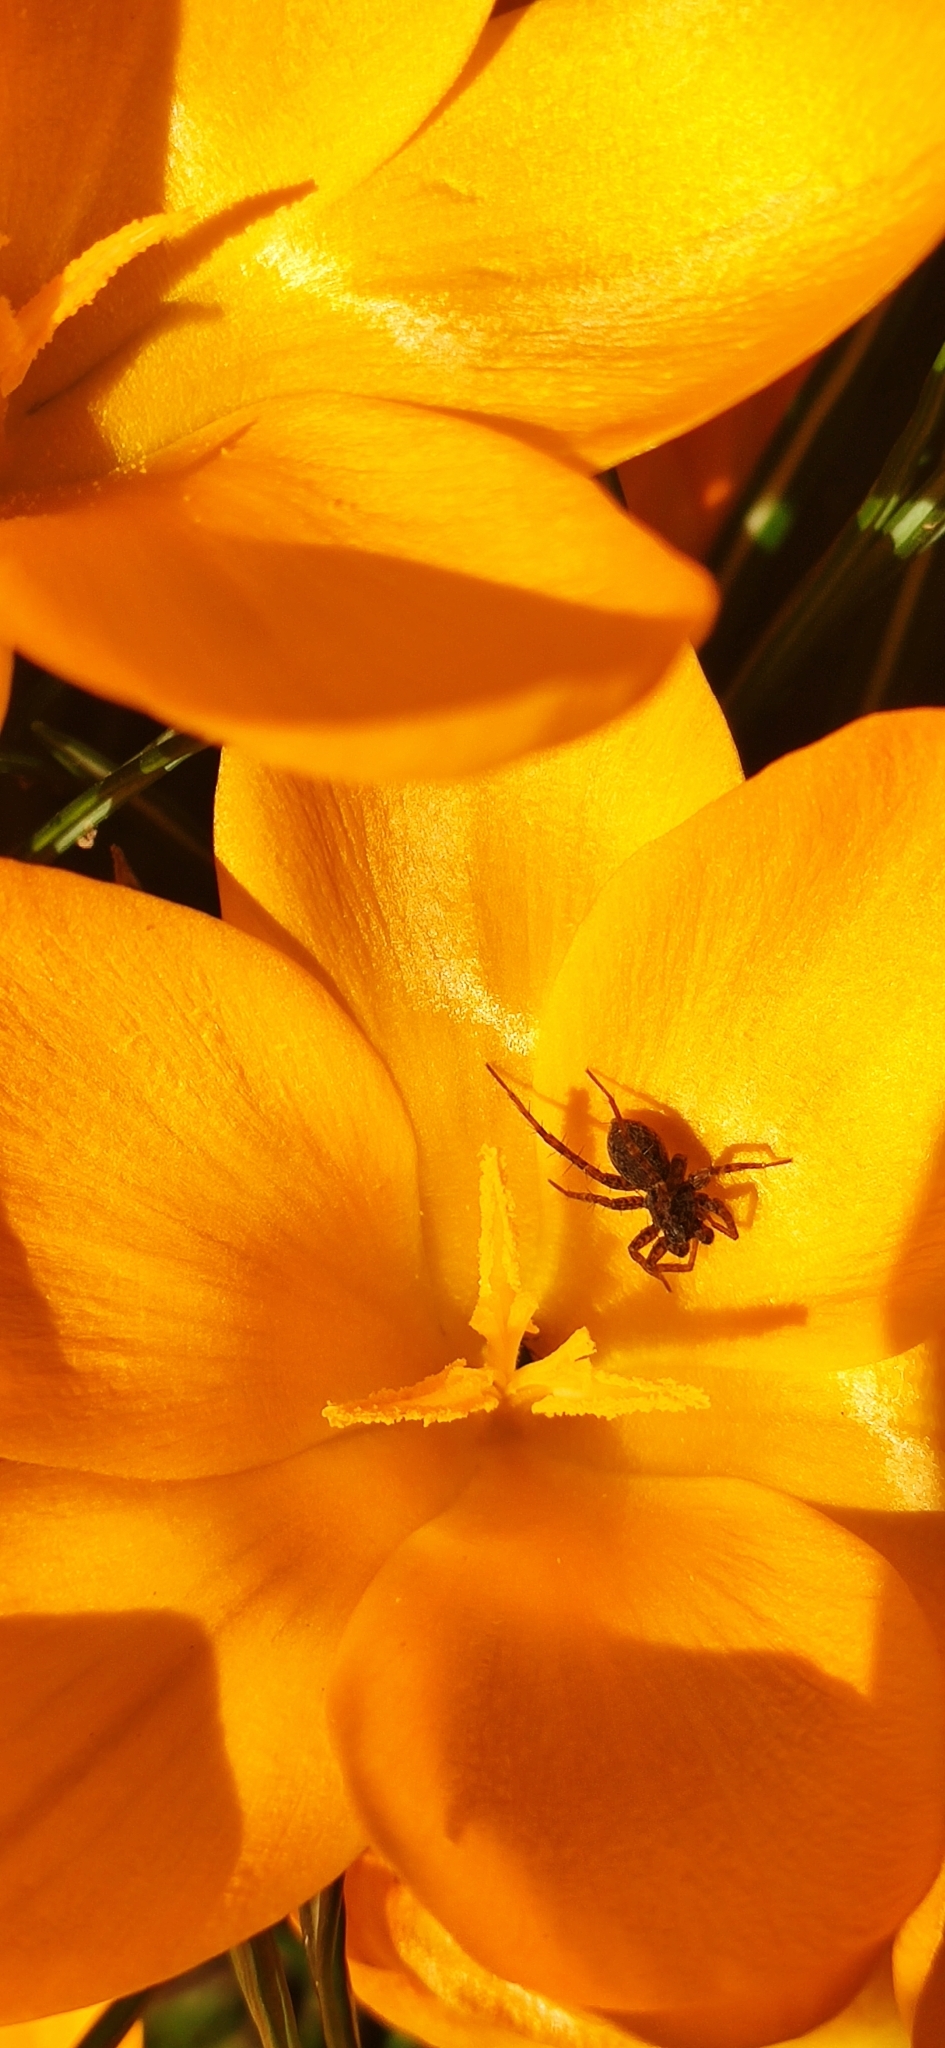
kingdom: Animalia
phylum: Arthropoda
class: Arachnida
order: Araneae
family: Lycosidae
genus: Pardosa
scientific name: Pardosa
